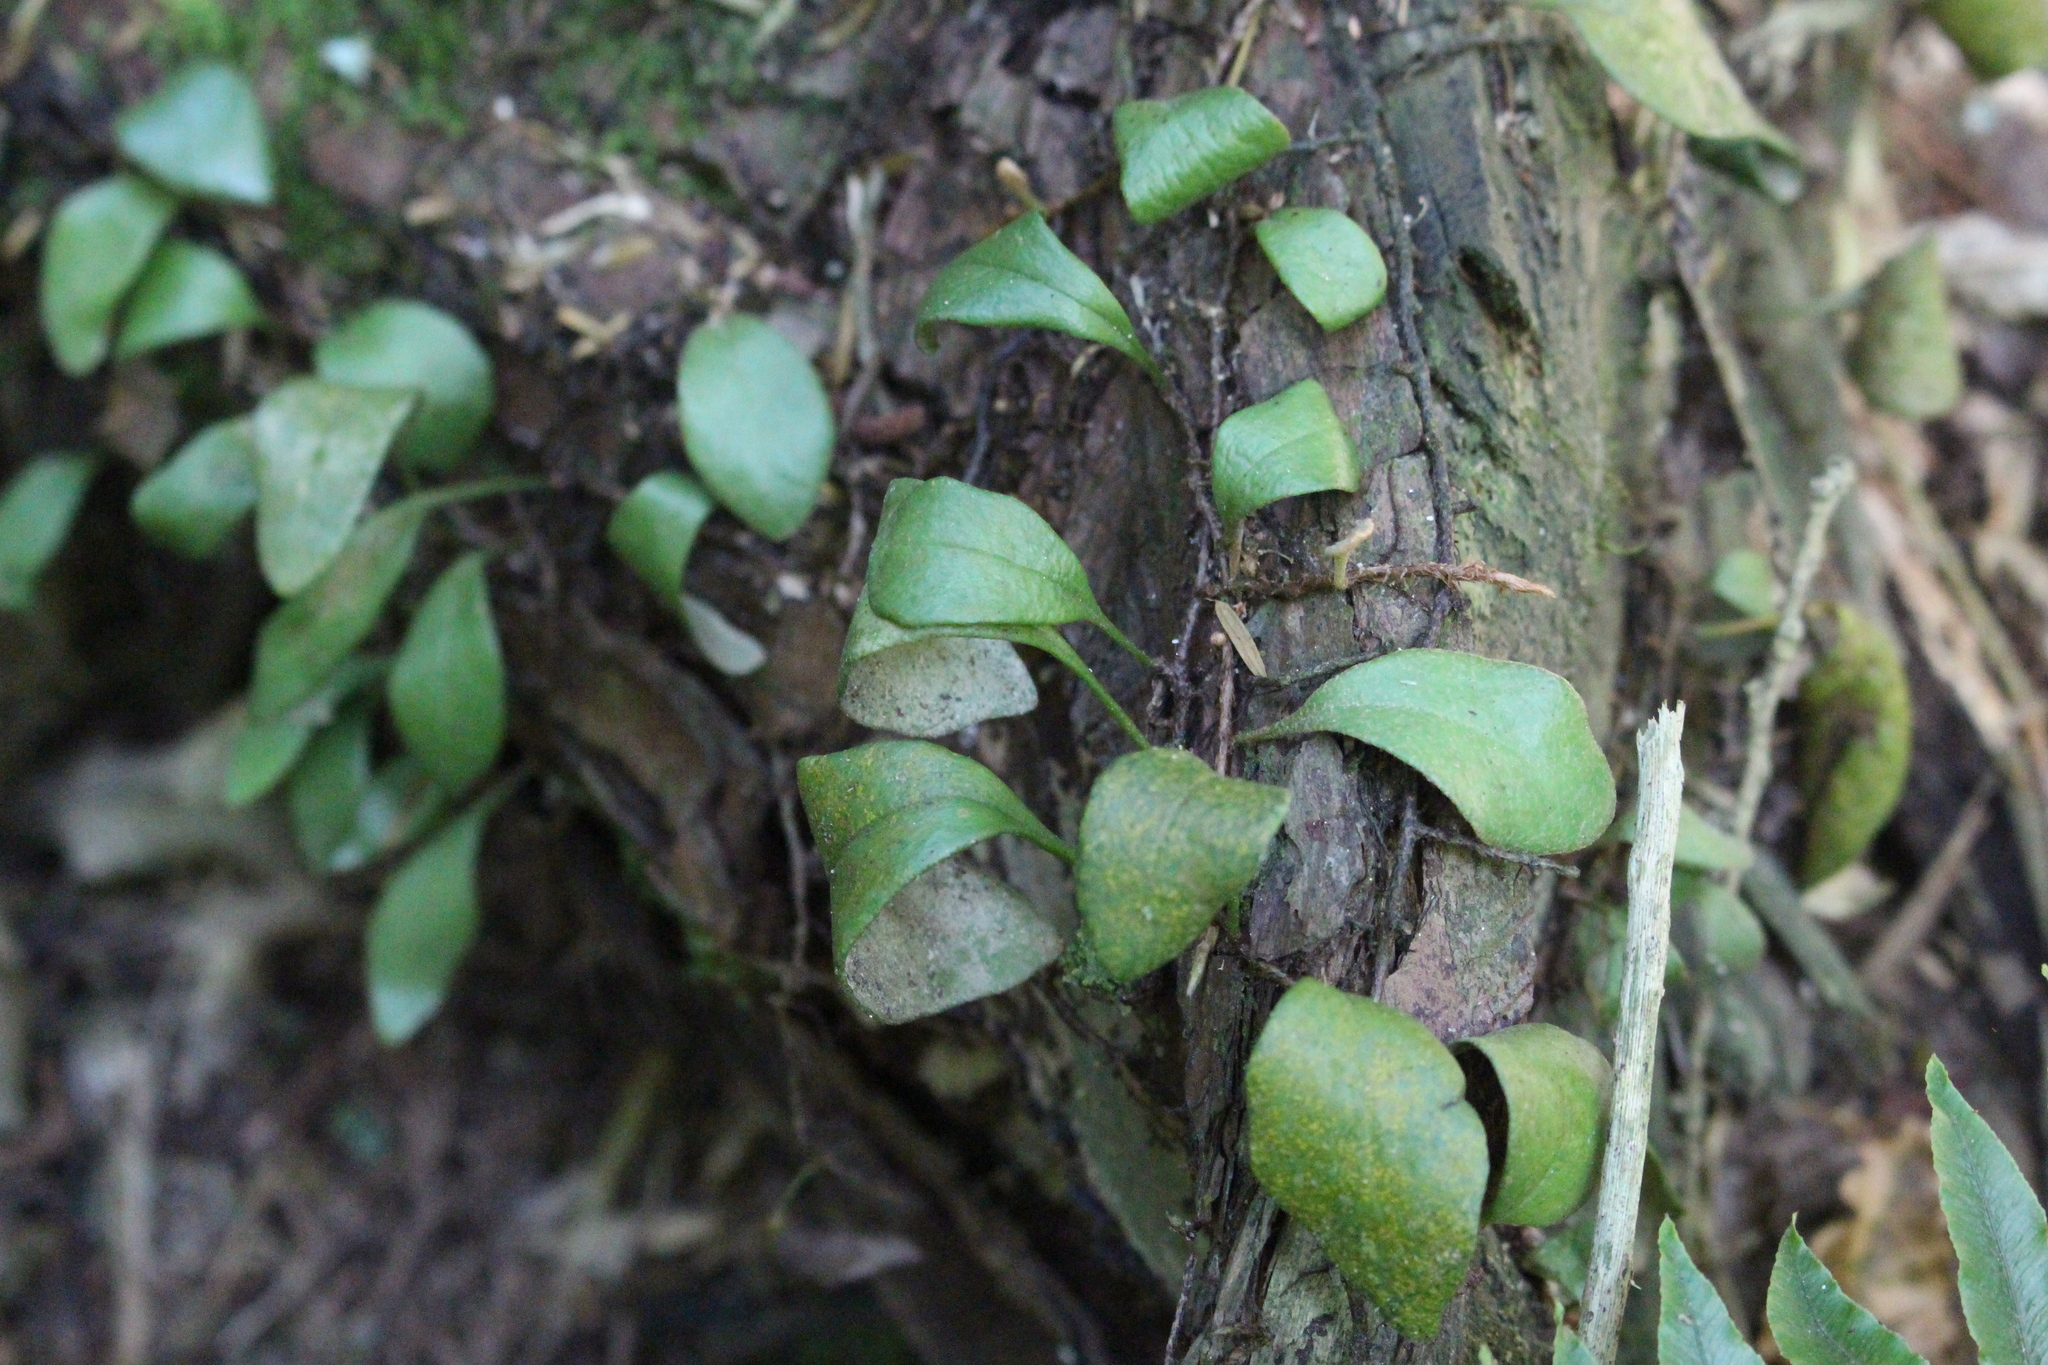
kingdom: Plantae
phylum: Tracheophyta
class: Polypodiopsida
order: Polypodiales
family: Polypodiaceae
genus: Pyrrosia
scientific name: Pyrrosia eleagnifolia
